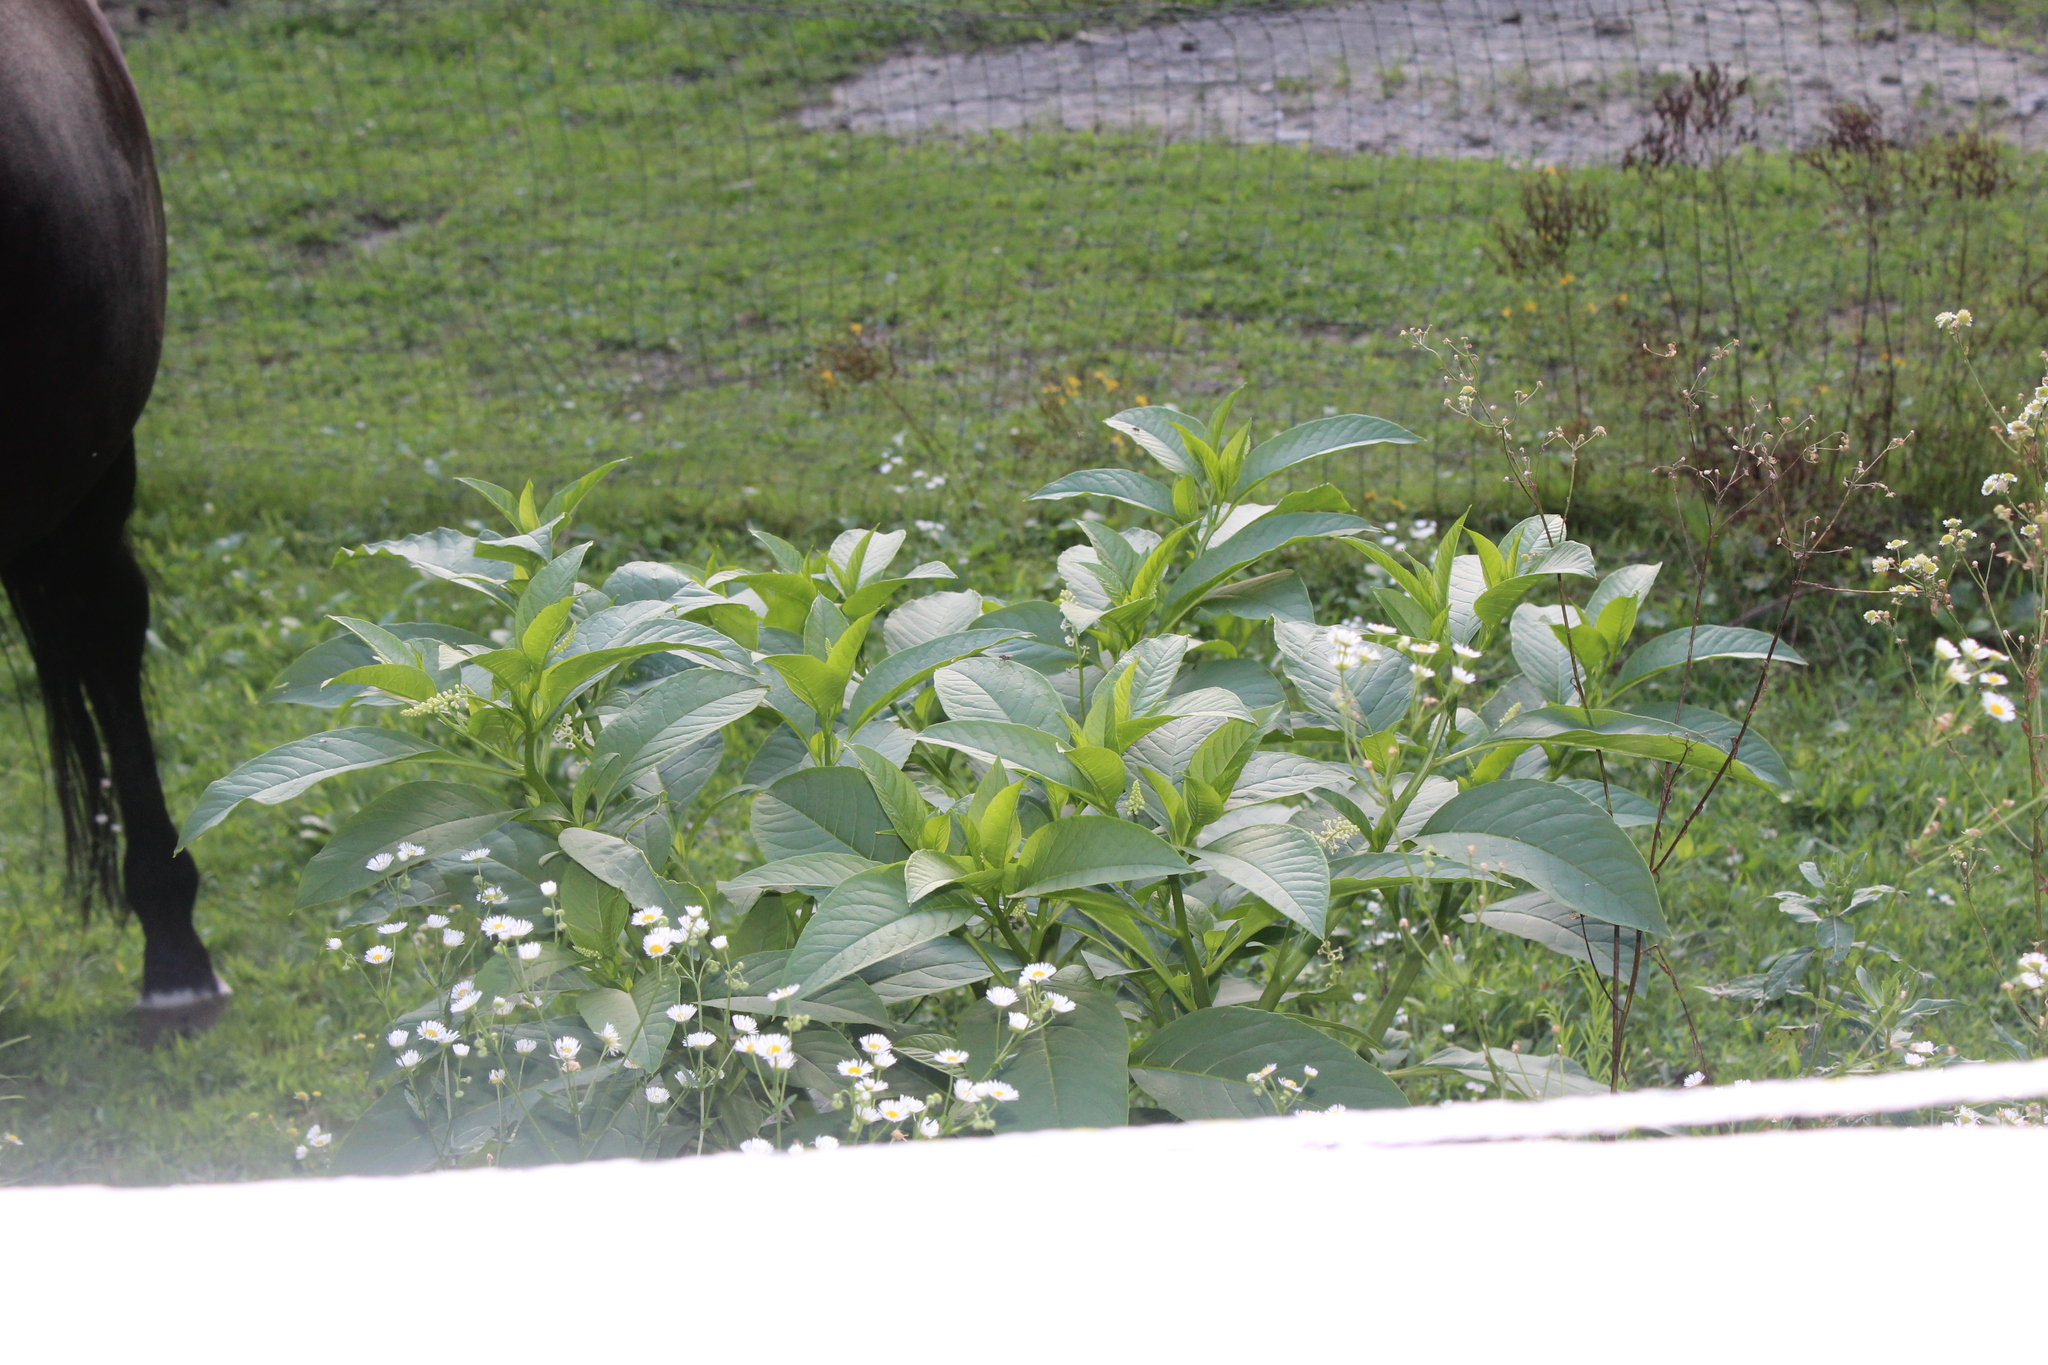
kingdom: Plantae
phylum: Tracheophyta
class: Magnoliopsida
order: Caryophyllales
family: Phytolaccaceae
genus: Phytolacca
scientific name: Phytolacca americana
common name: American pokeweed
